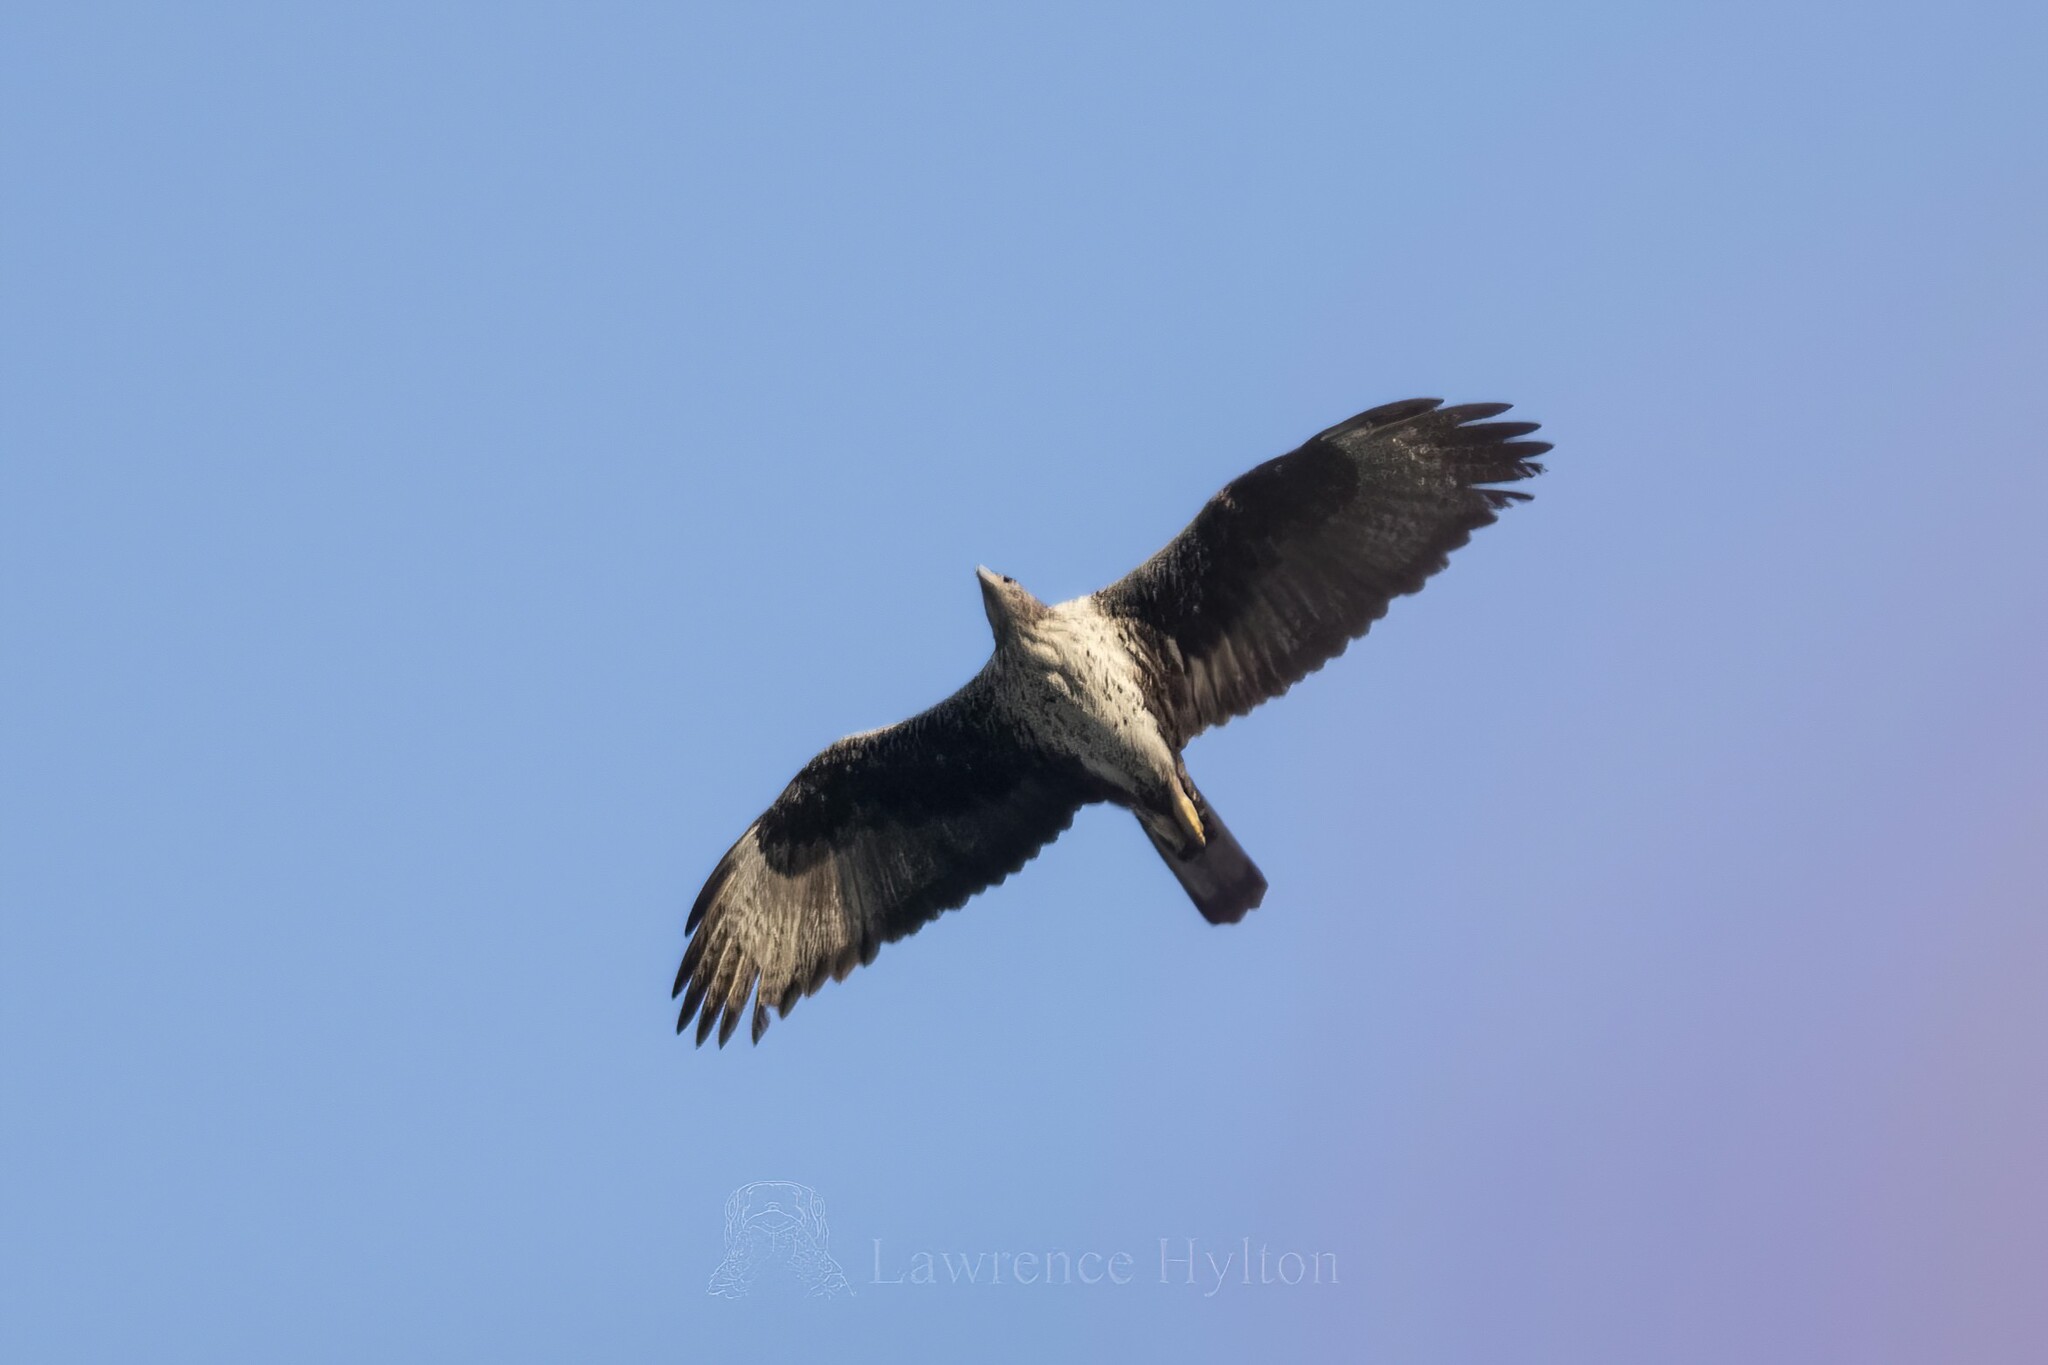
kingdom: Animalia
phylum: Chordata
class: Aves
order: Accipitriformes
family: Accipitridae
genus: Aquila
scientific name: Aquila fasciata
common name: Bonelli's eagle
